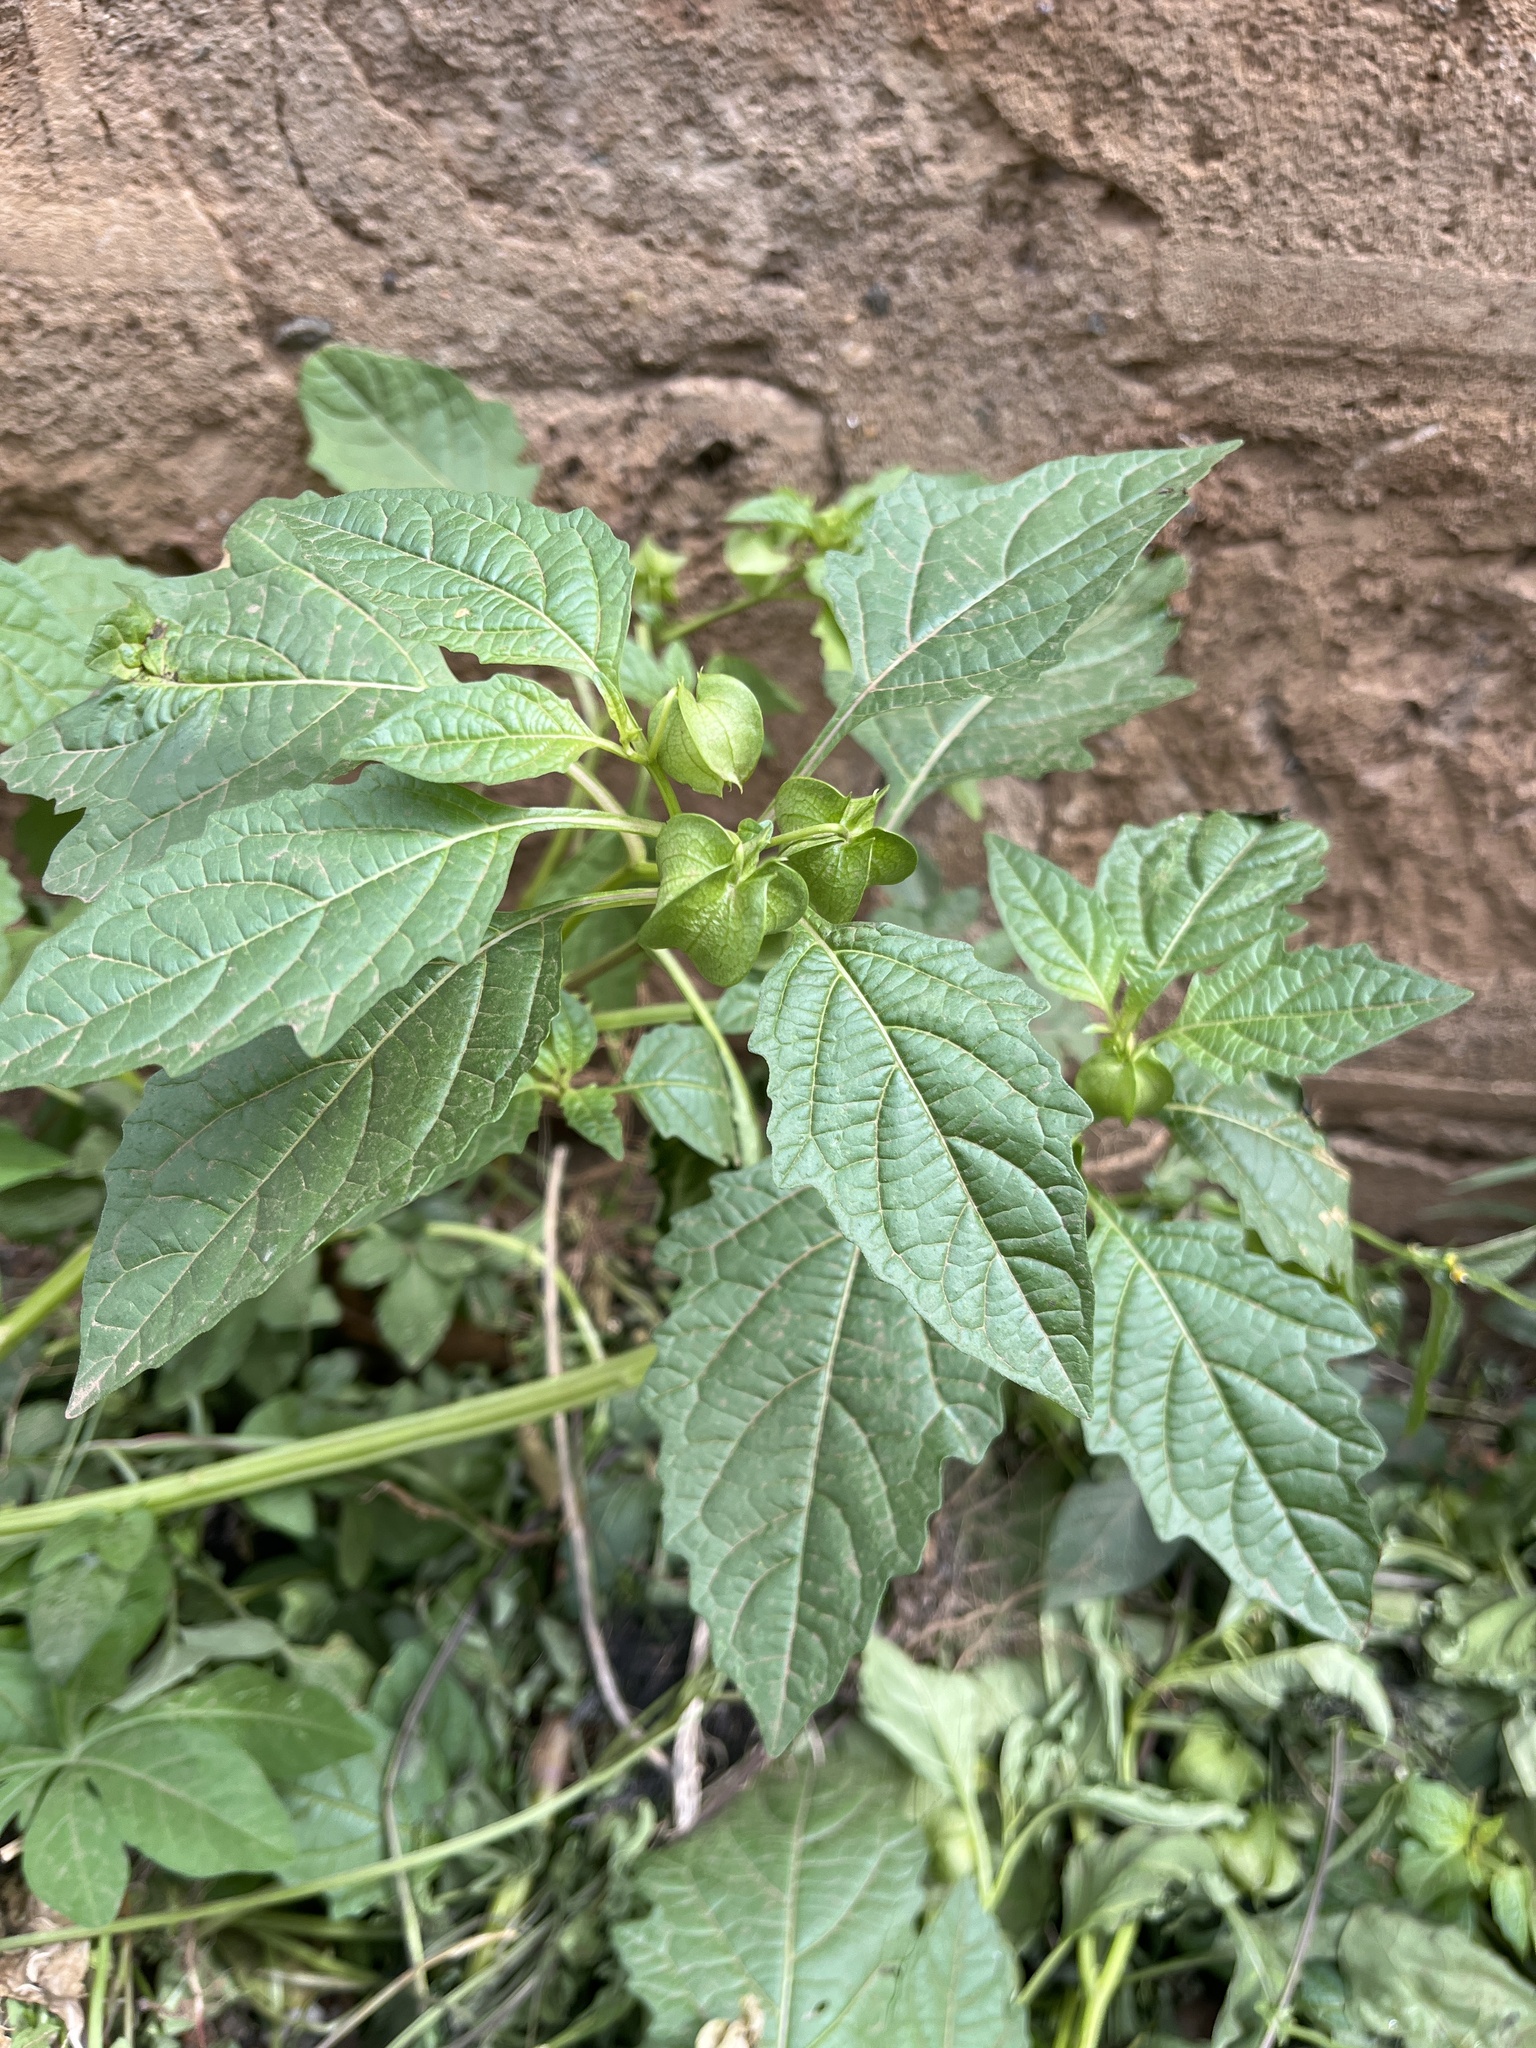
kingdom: Plantae
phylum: Tracheophyta
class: Magnoliopsida
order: Solanales
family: Solanaceae
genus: Nicandra
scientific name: Nicandra physalodes
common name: Apple-of-peru
